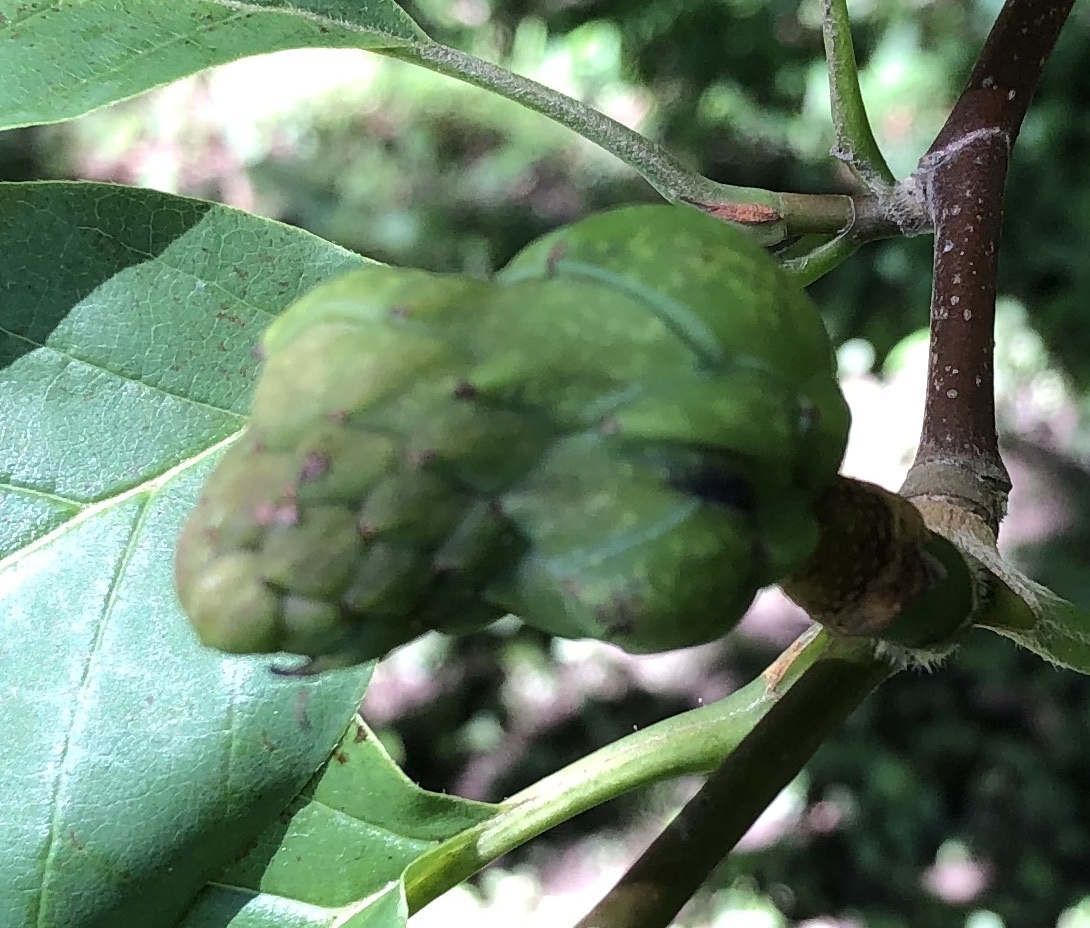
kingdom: Plantae
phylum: Tracheophyta
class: Magnoliopsida
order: Magnoliales
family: Magnoliaceae
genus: Magnolia
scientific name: Magnolia acuminata
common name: Cucumber magnolia
